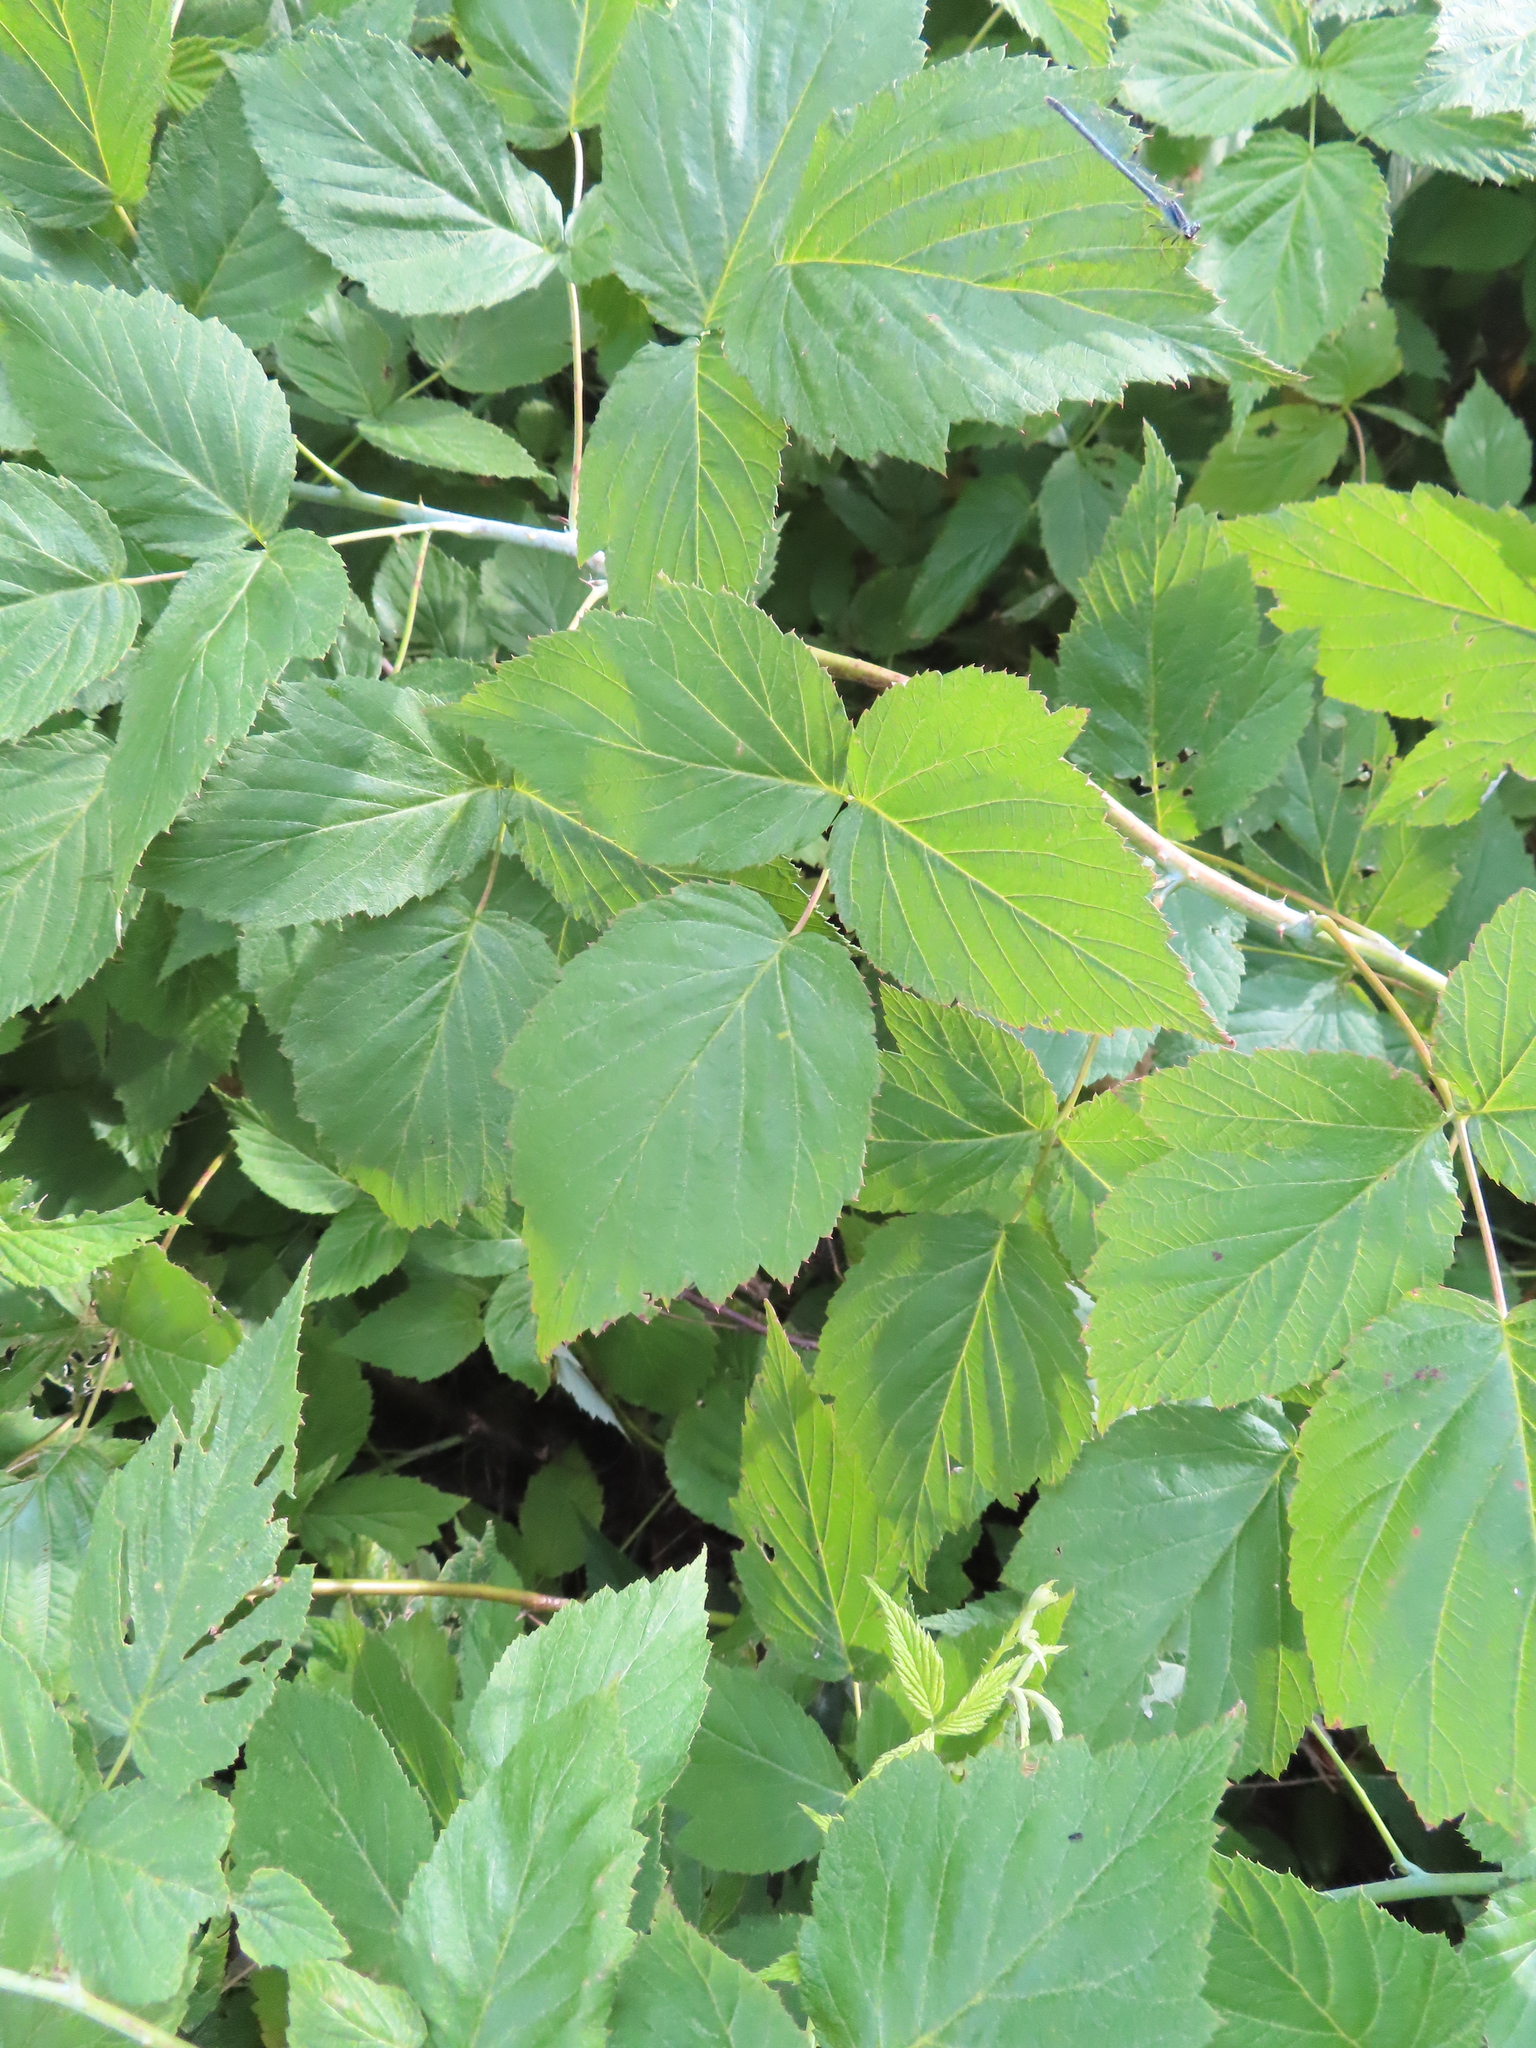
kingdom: Plantae
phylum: Tracheophyta
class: Magnoliopsida
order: Rosales
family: Rosaceae
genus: Rubus
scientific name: Rubus occidentalis
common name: Black raspberry
